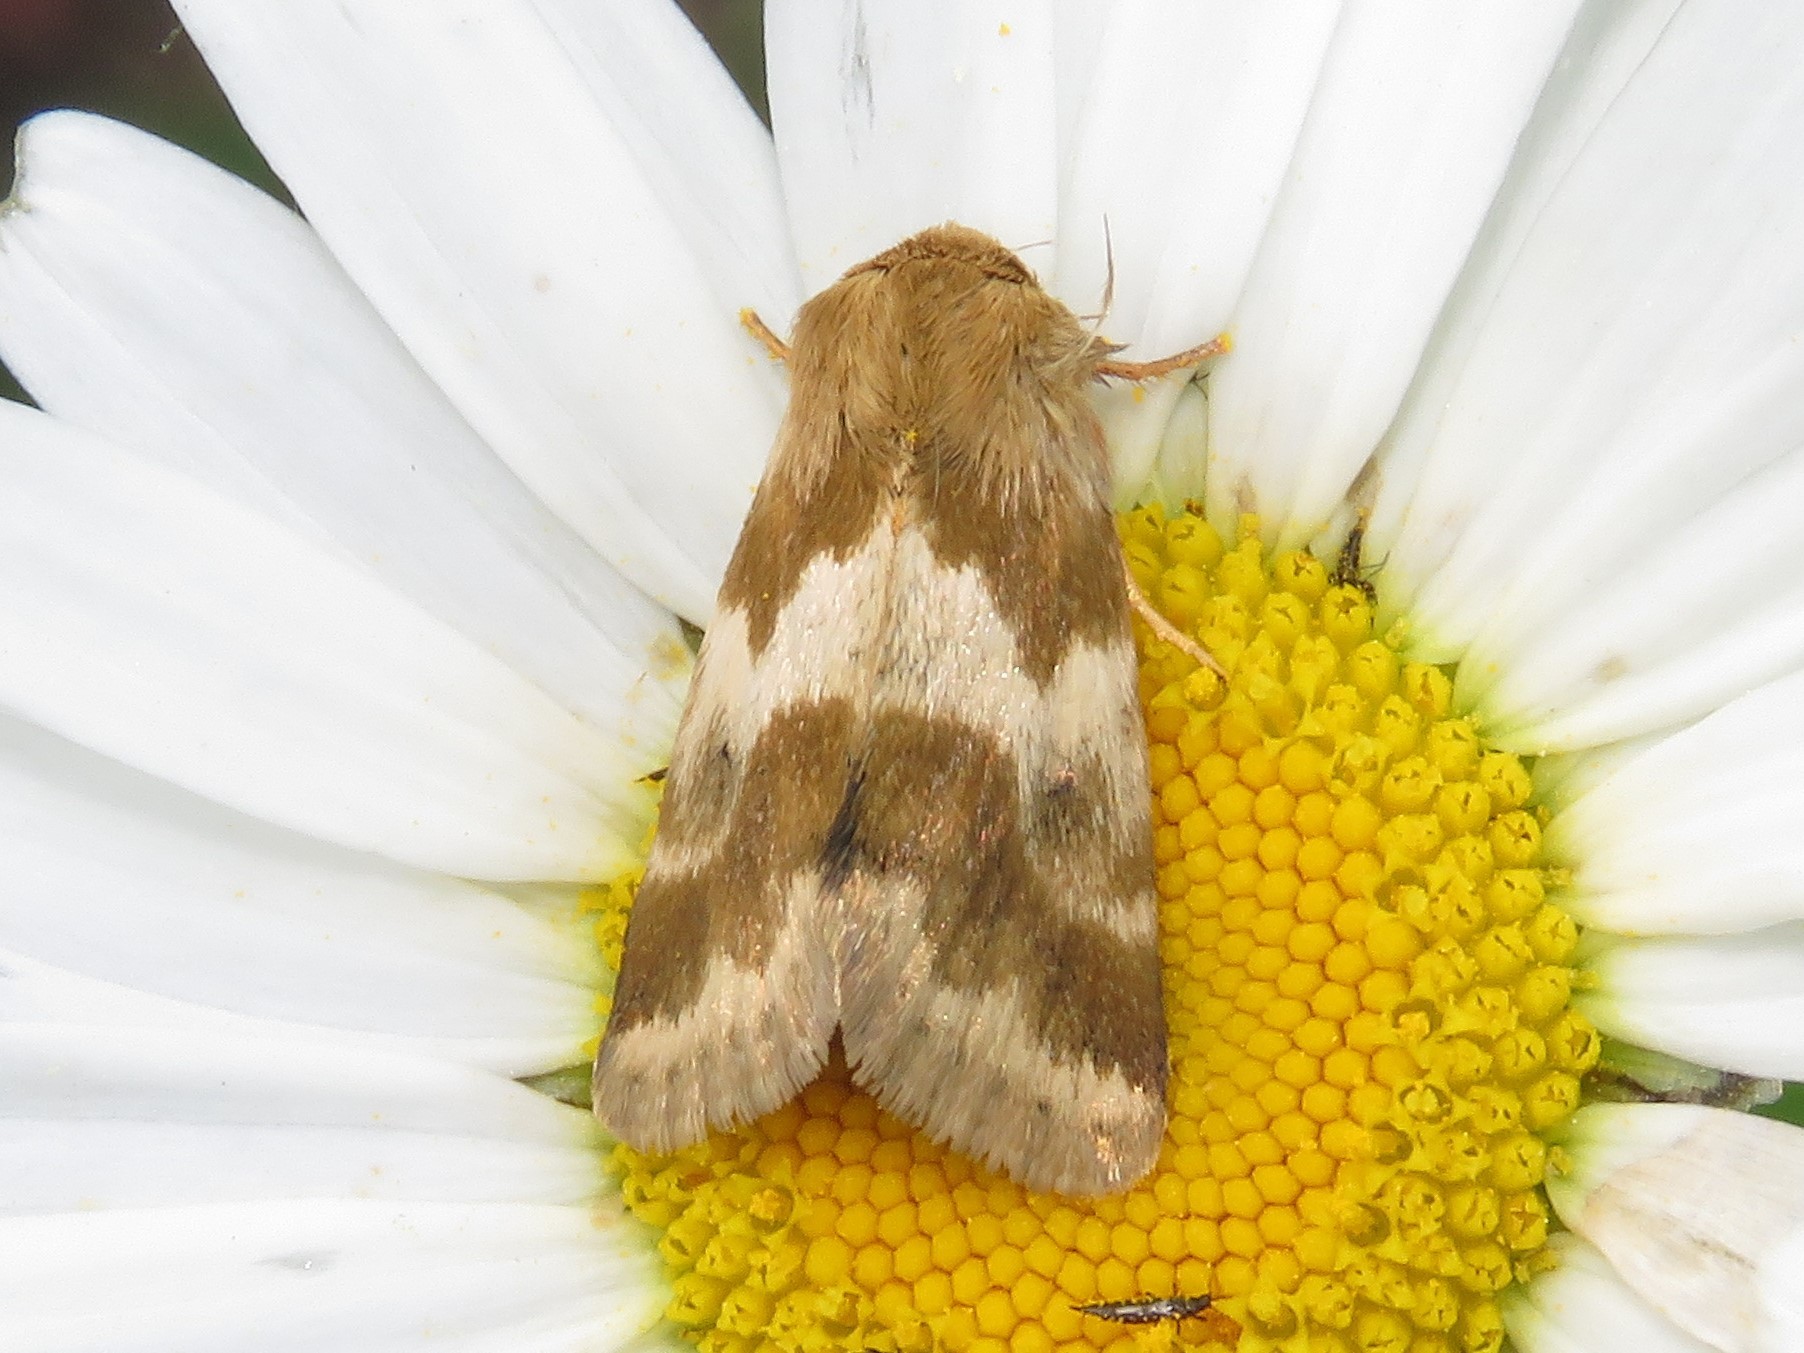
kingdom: Animalia
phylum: Arthropoda
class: Insecta
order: Lepidoptera
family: Noctuidae
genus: Schinia
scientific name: Schinia lynx
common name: Lynx flower moth
